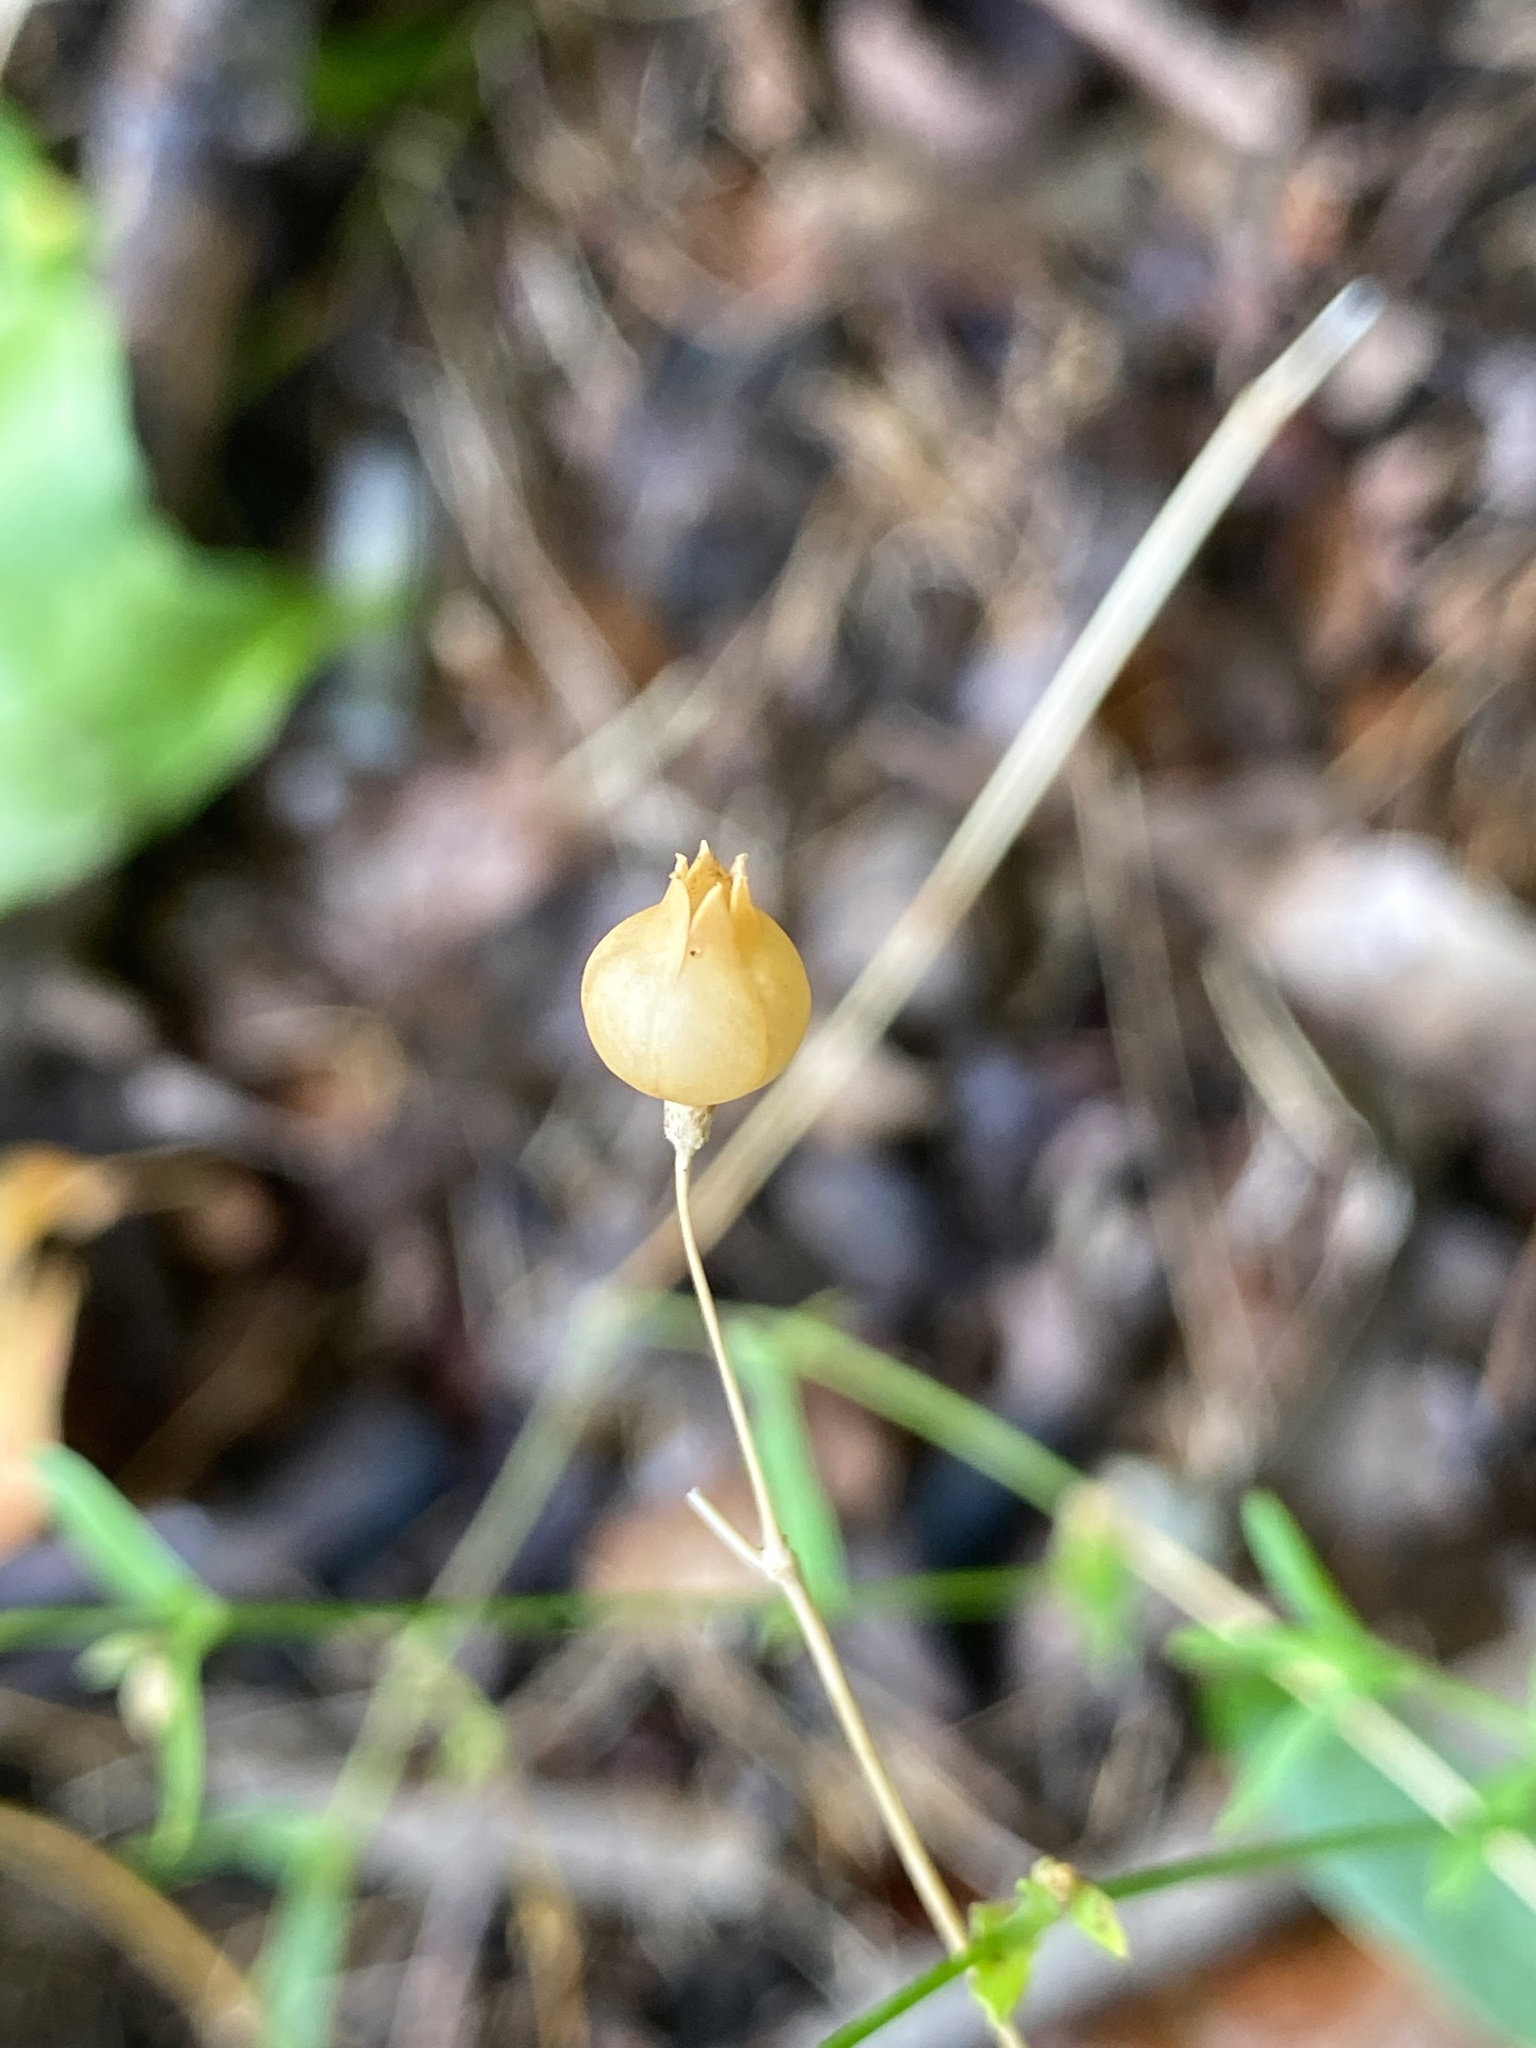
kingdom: Plantae
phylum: Tracheophyta
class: Magnoliopsida
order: Caryophyllales
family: Caryophyllaceae
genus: Silene
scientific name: Silene vulgaris
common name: Bladder campion
